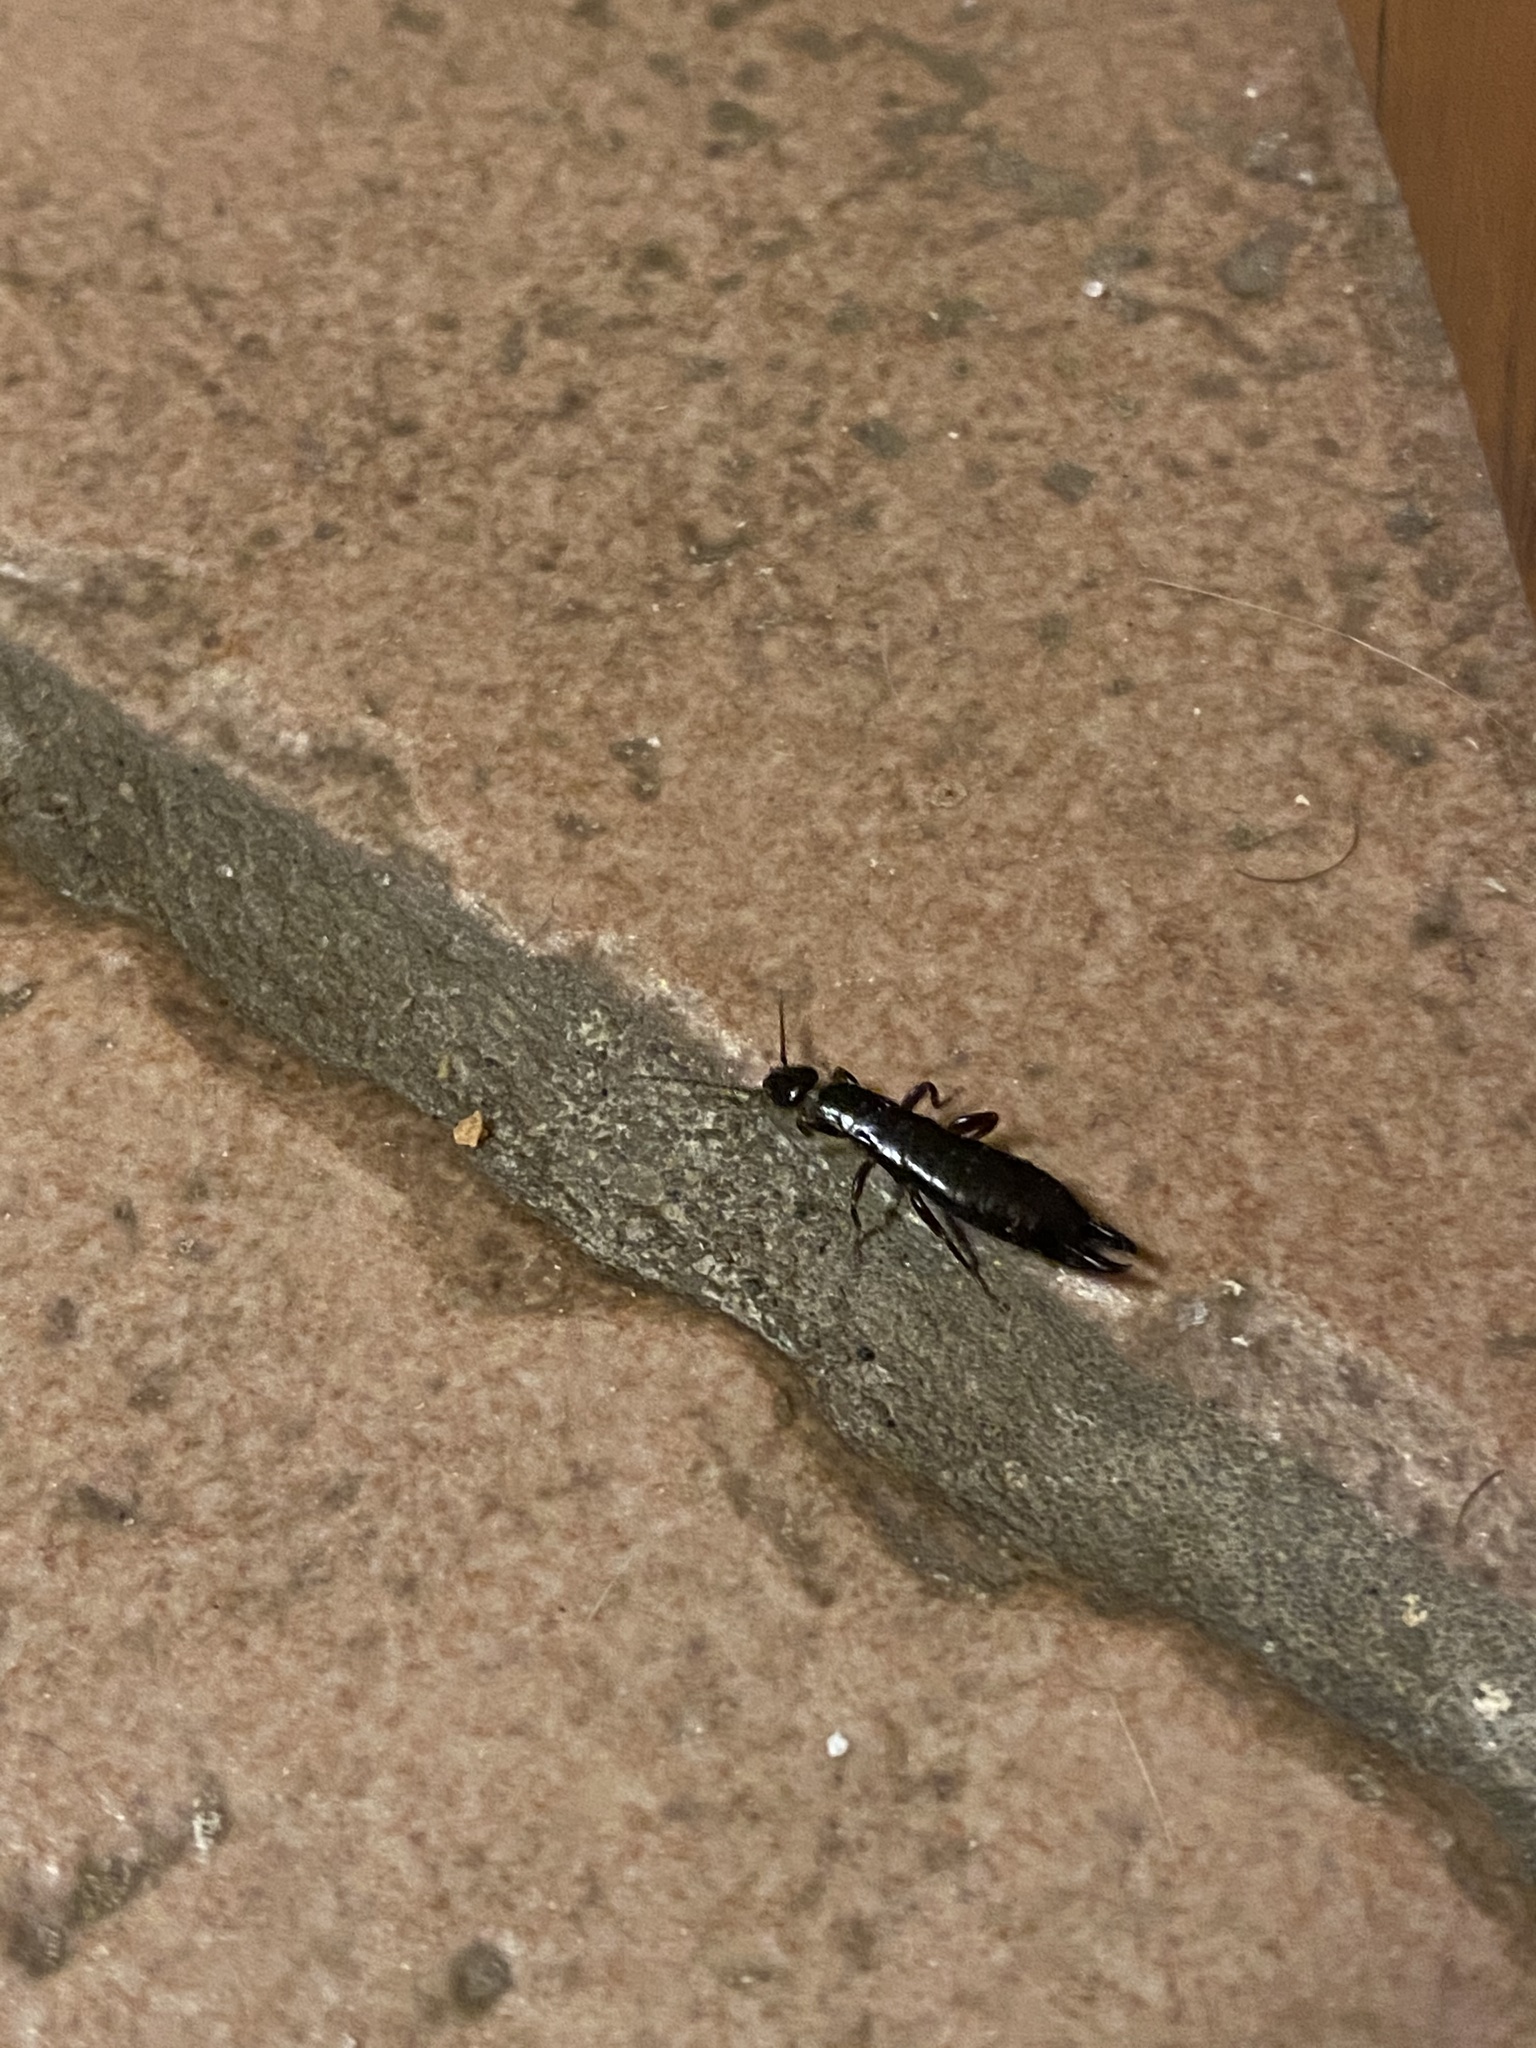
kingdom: Animalia
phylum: Arthropoda
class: Insecta
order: Dermaptera
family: Anisolabididae
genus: Euborellia
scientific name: Euborellia moesta
